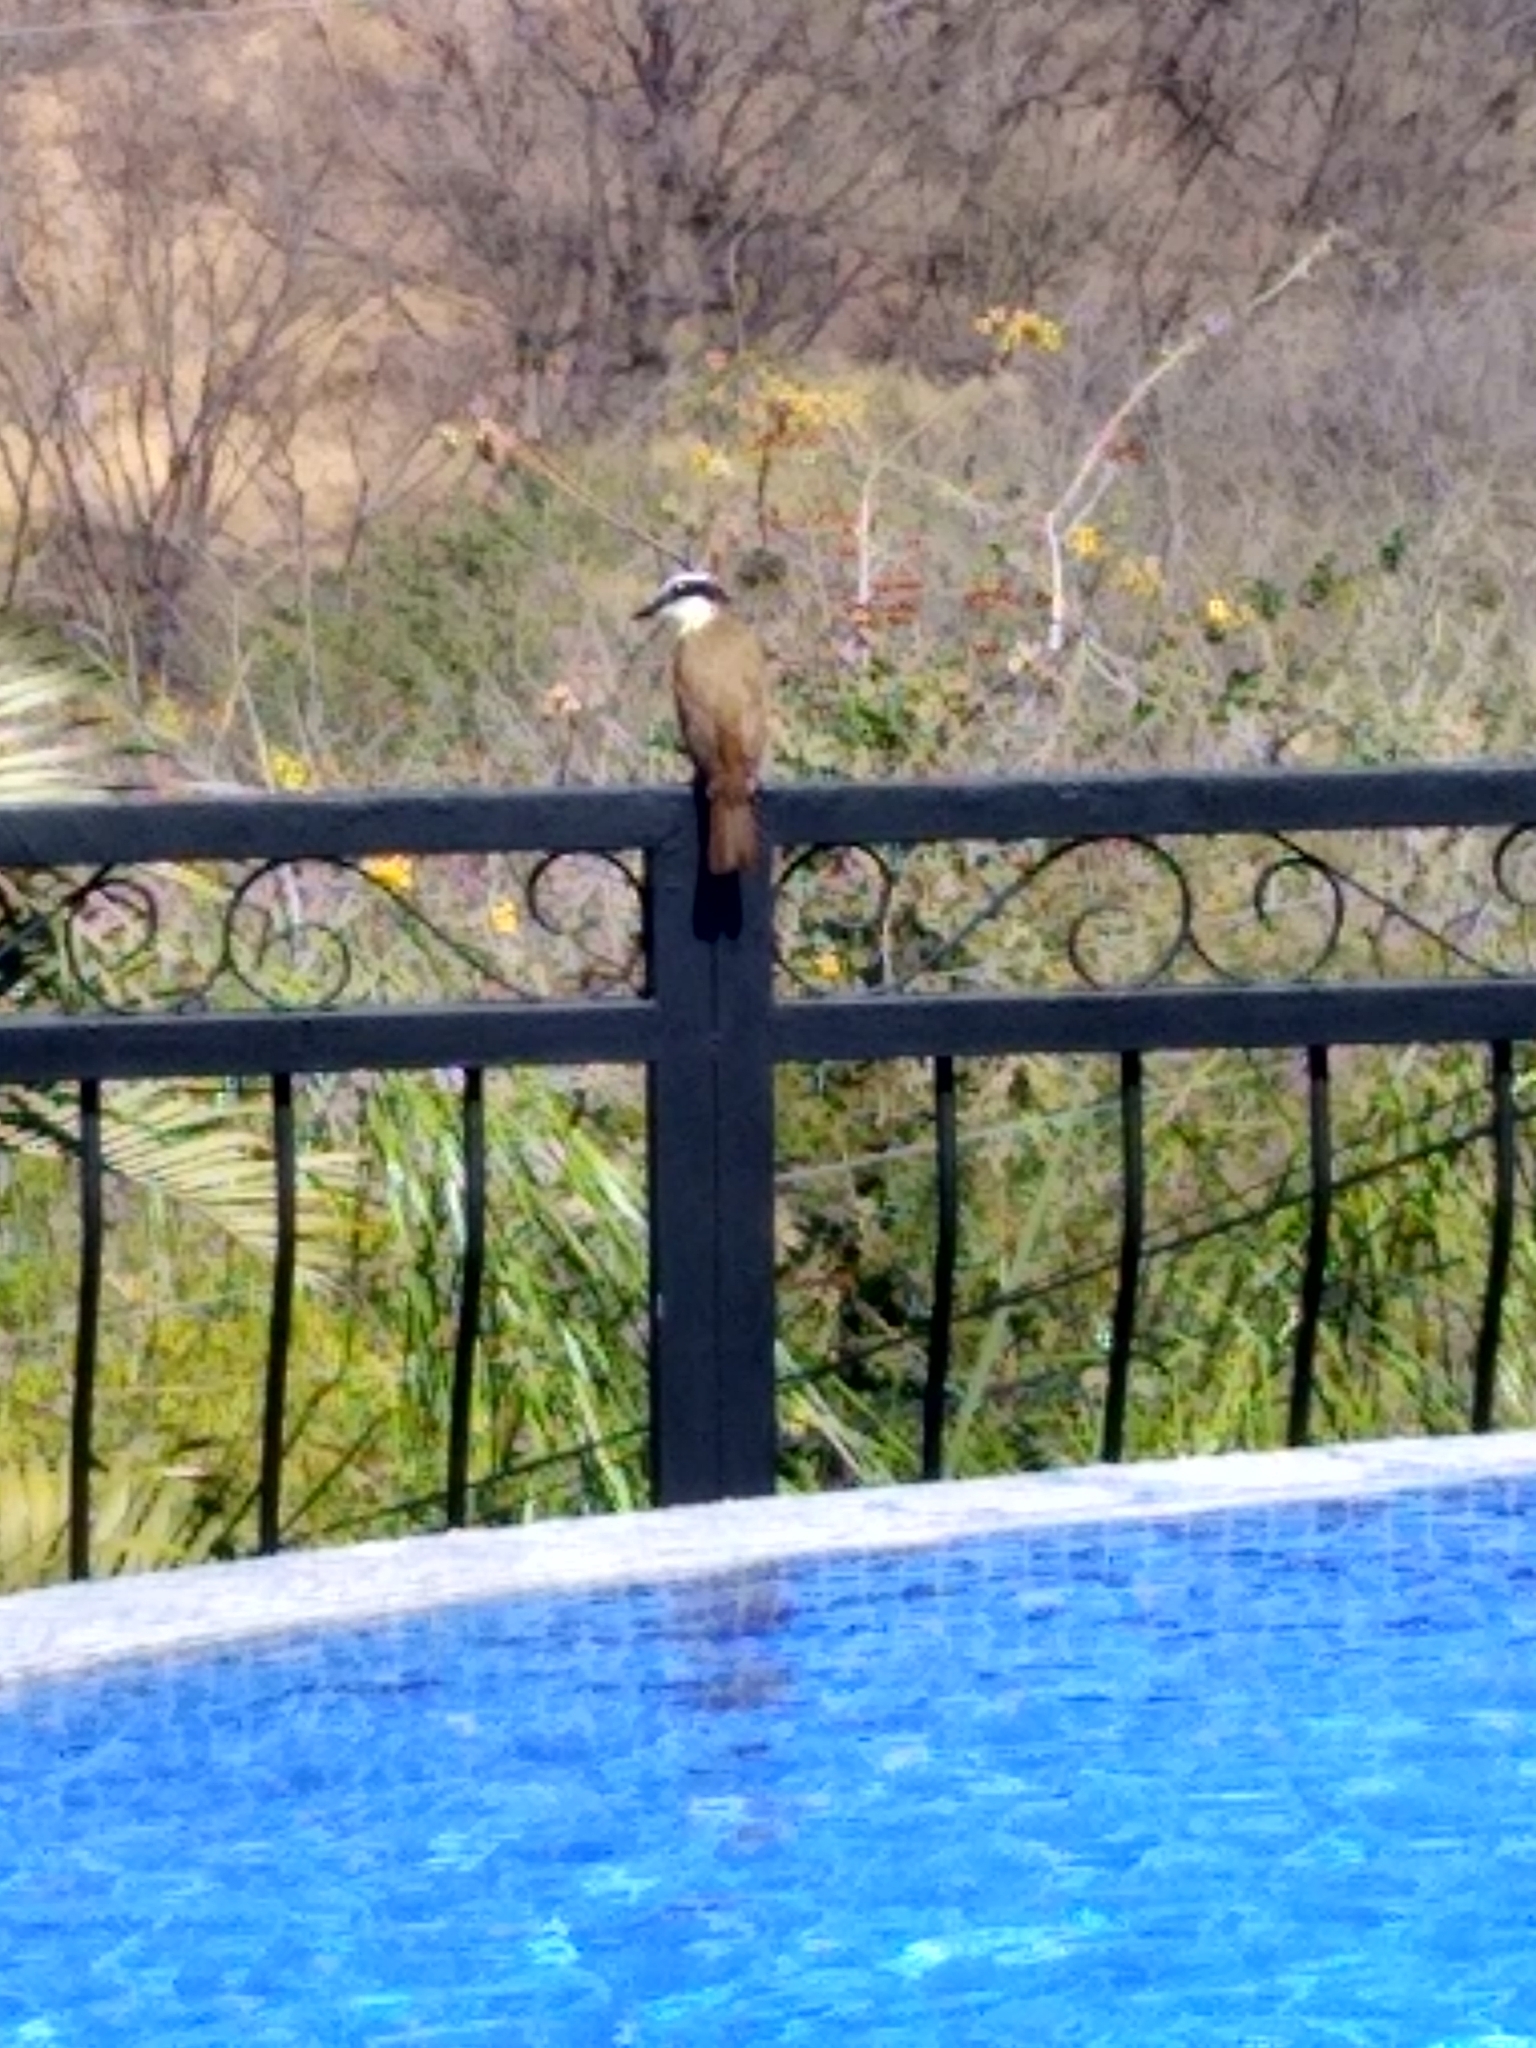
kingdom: Animalia
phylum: Chordata
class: Aves
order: Passeriformes
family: Tyrannidae
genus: Pitangus
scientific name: Pitangus sulphuratus
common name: Great kiskadee
